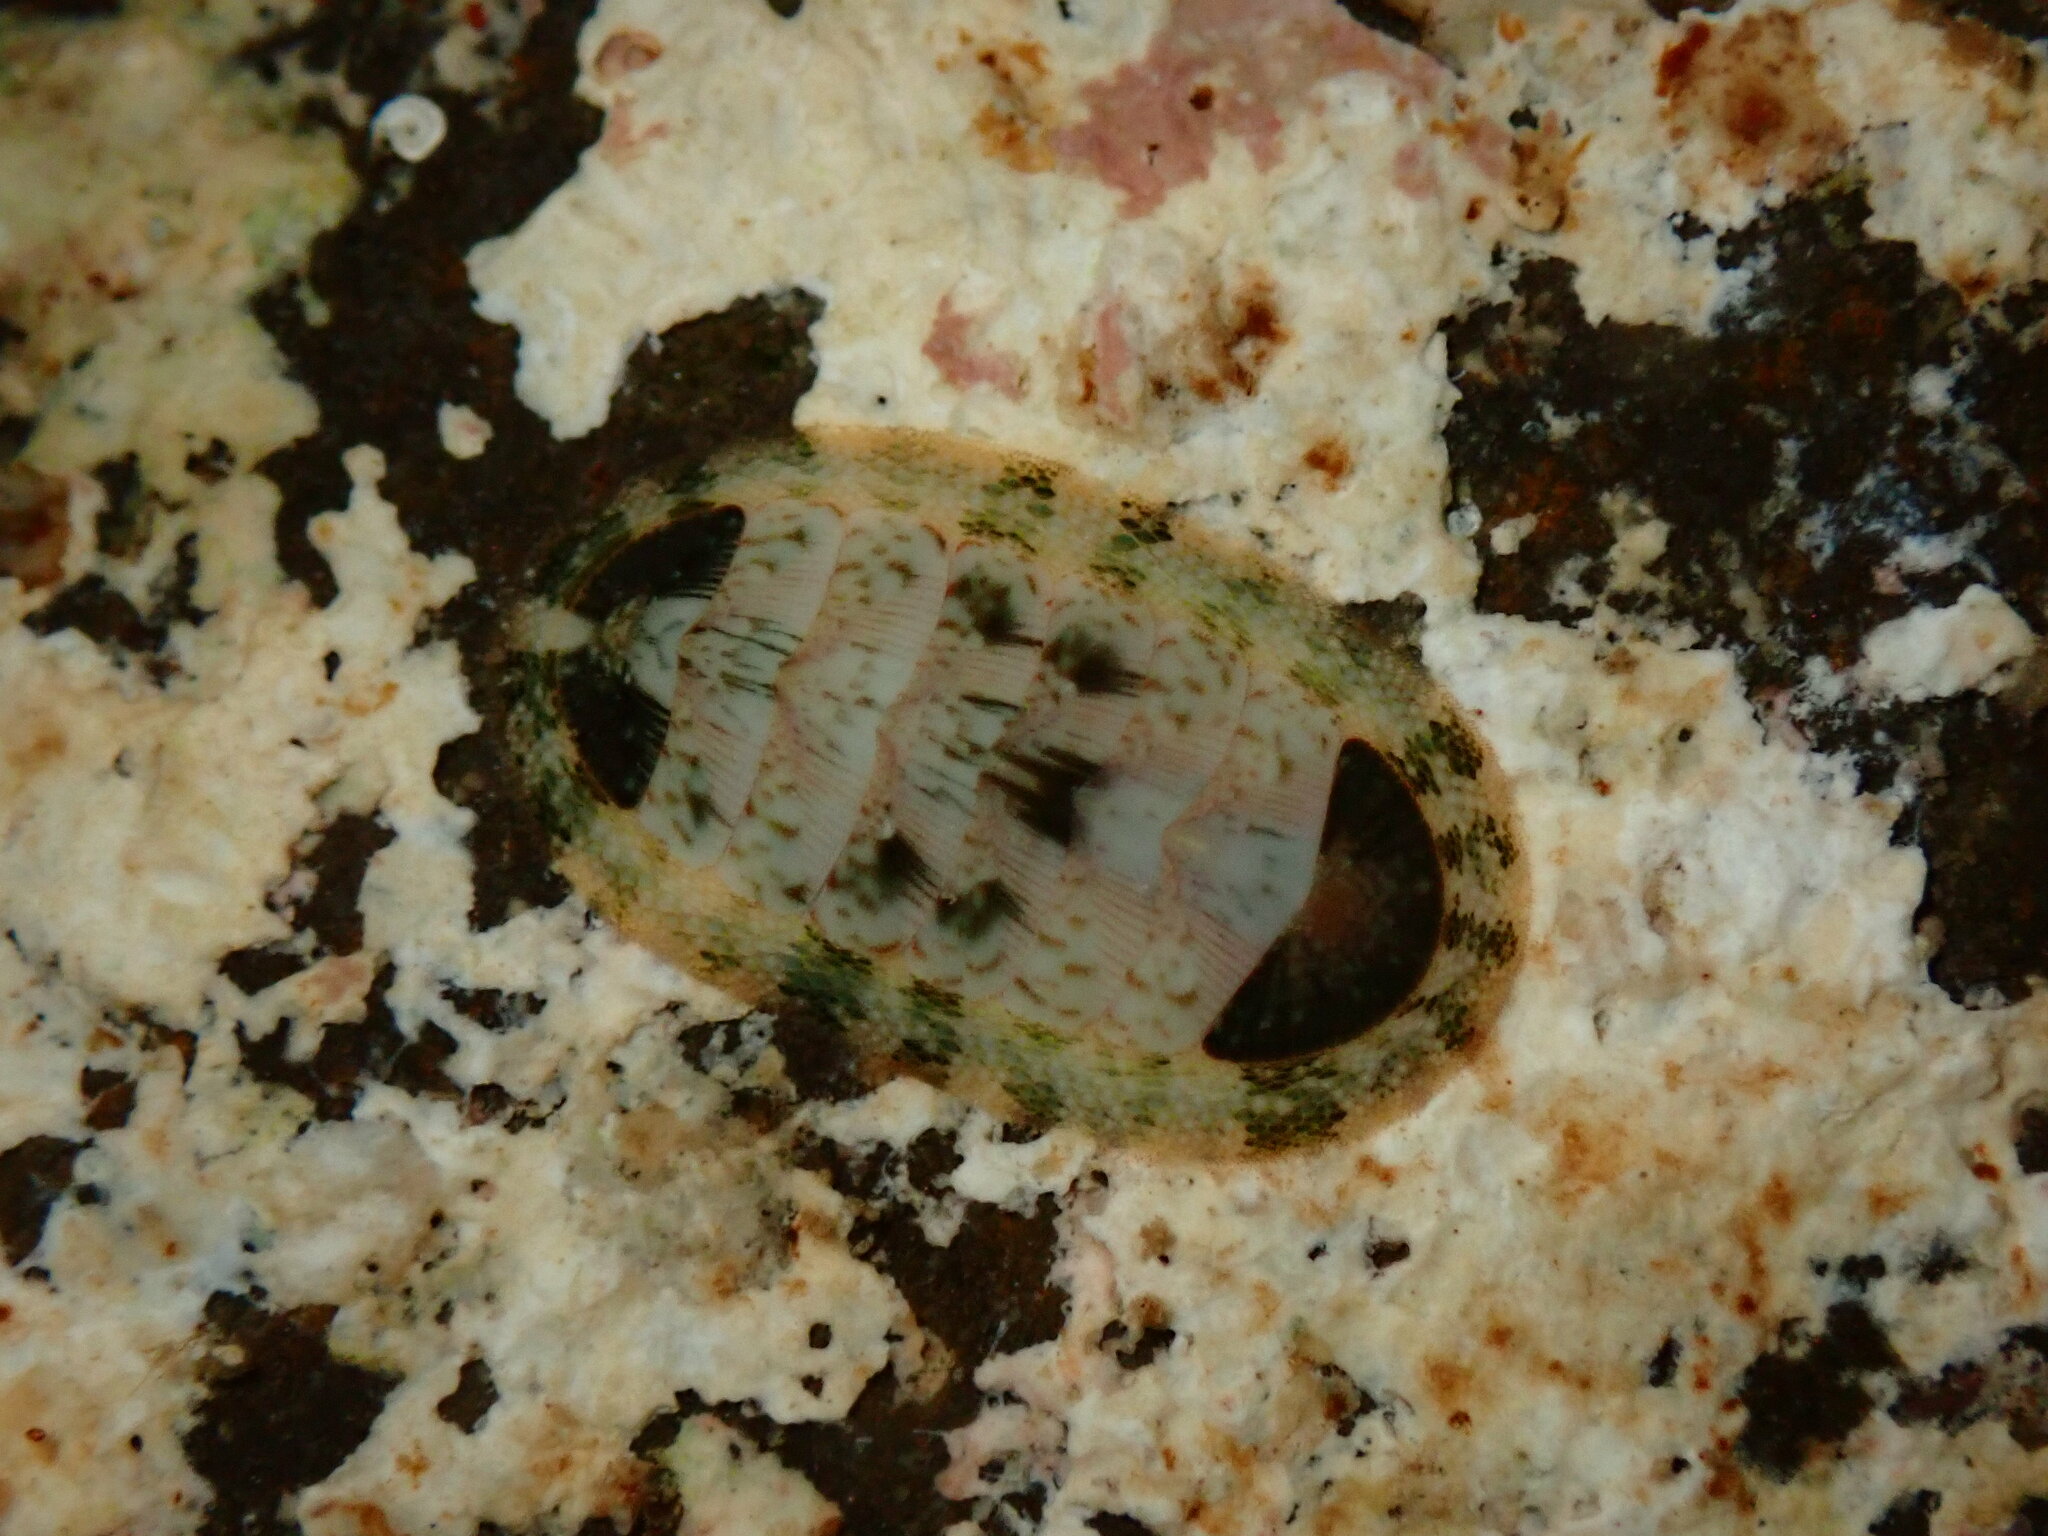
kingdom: Animalia
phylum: Mollusca
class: Polyplacophora
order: Chitonida
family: Chitonidae
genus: Rhyssoplax
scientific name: Rhyssoplax linsleyi
